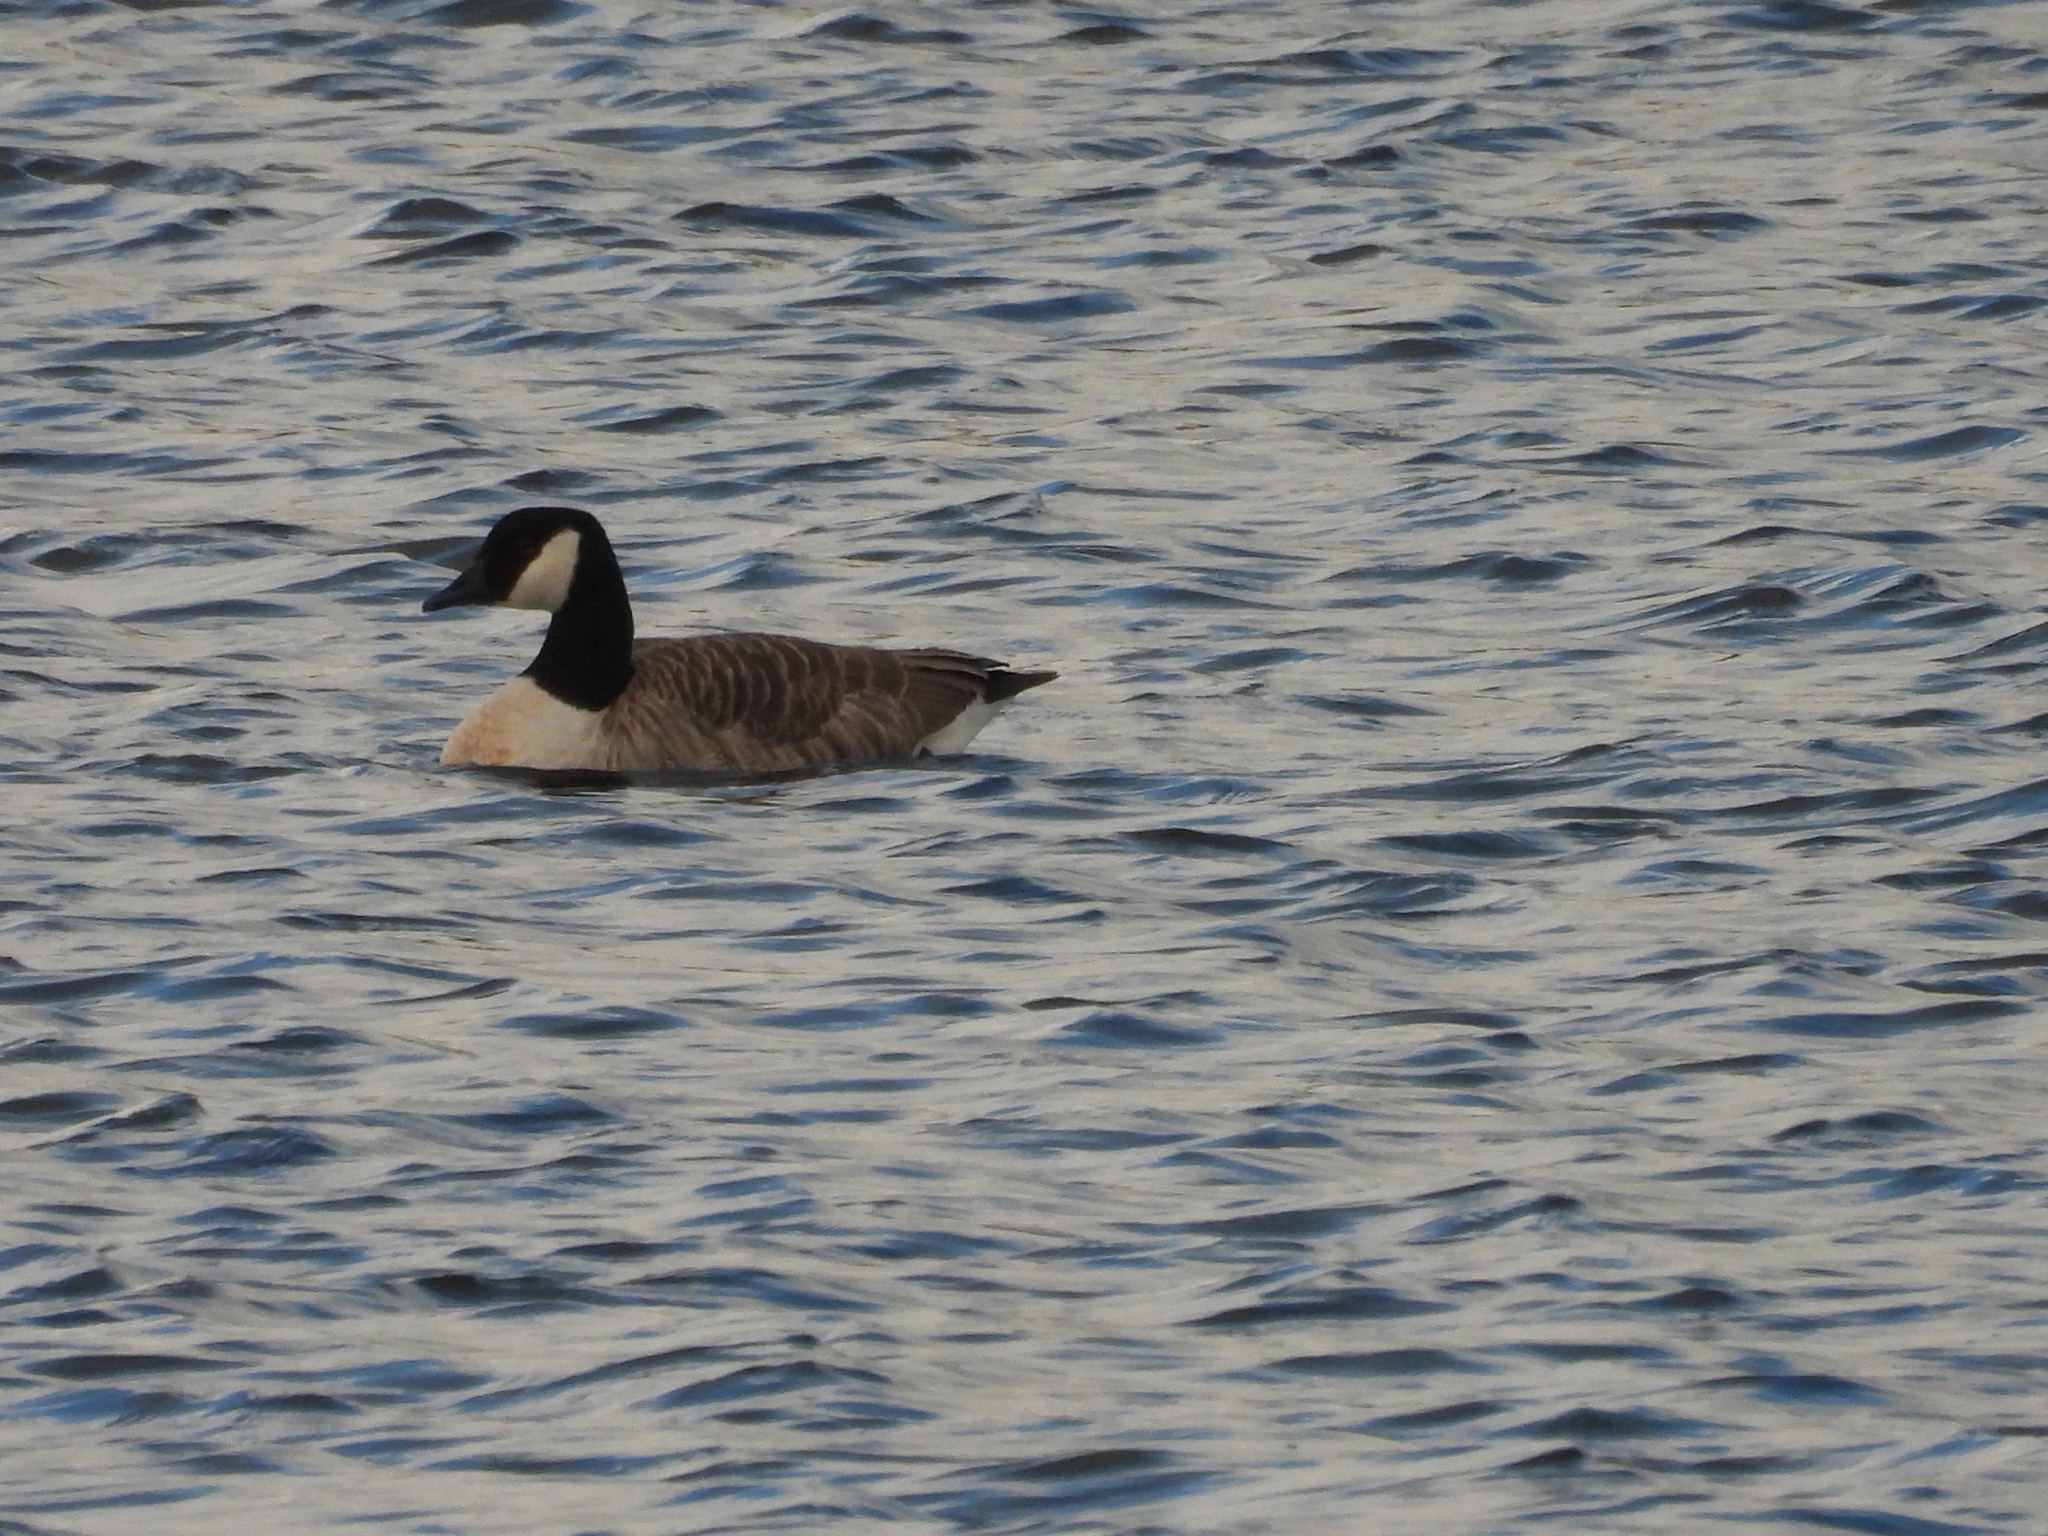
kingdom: Animalia
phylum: Chordata
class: Aves
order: Anseriformes
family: Anatidae
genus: Branta
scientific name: Branta canadensis
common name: Canada goose
